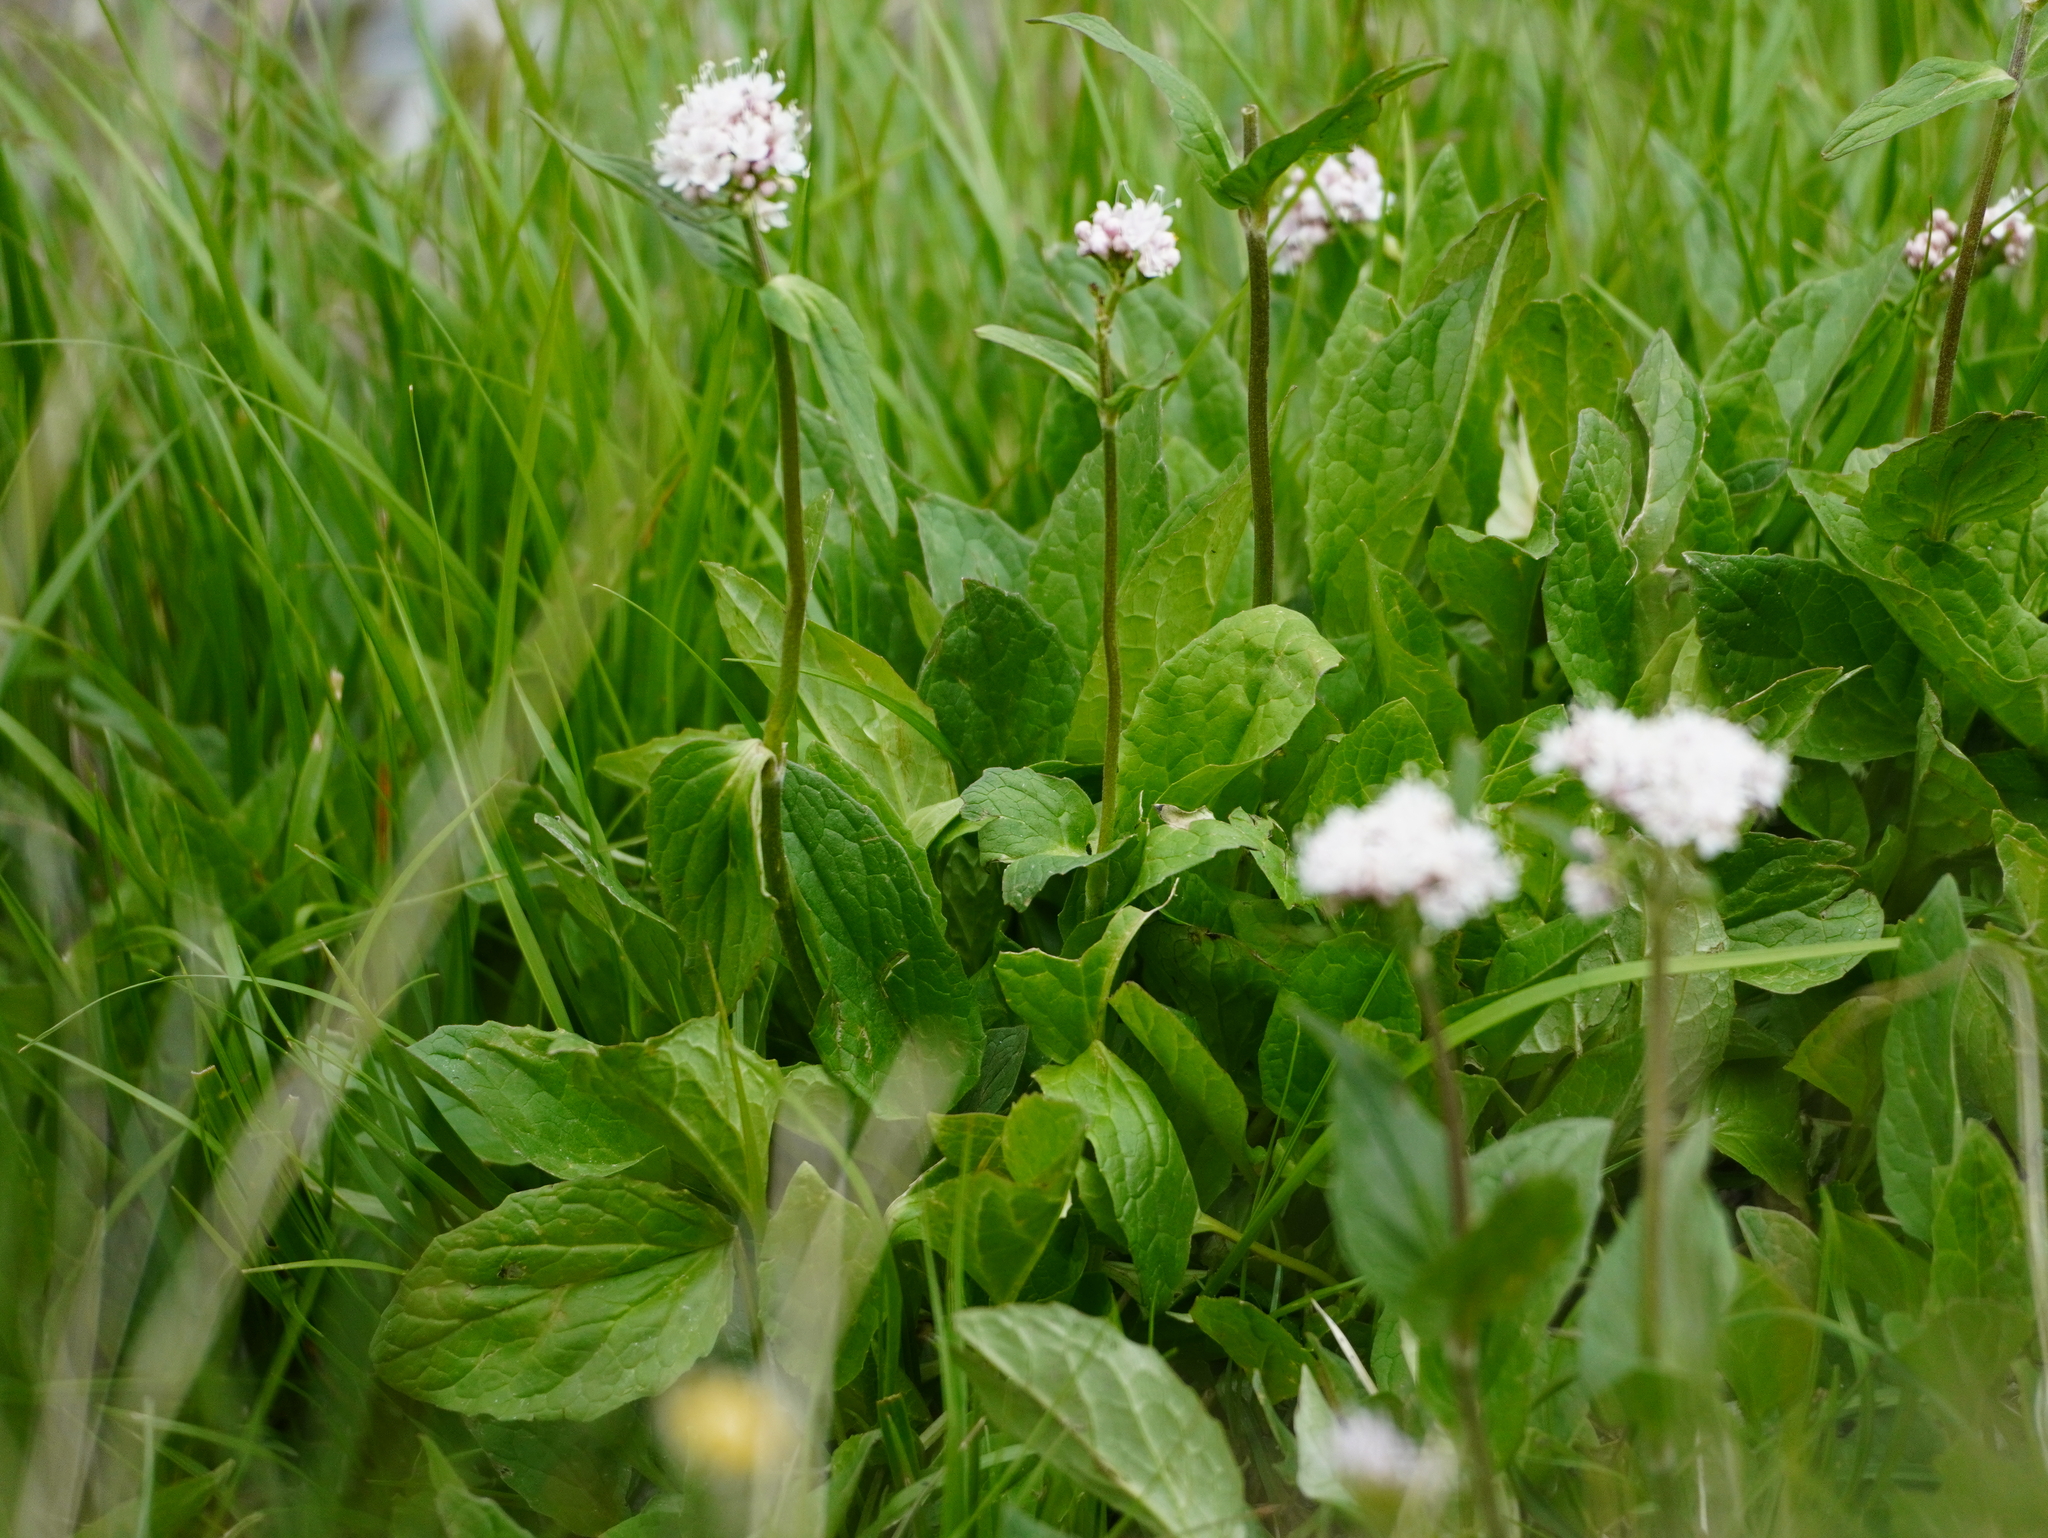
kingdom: Plantae
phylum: Tracheophyta
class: Magnoliopsida
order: Dipsacales
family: Caprifoliaceae
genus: Valeriana
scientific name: Valeriana montana
